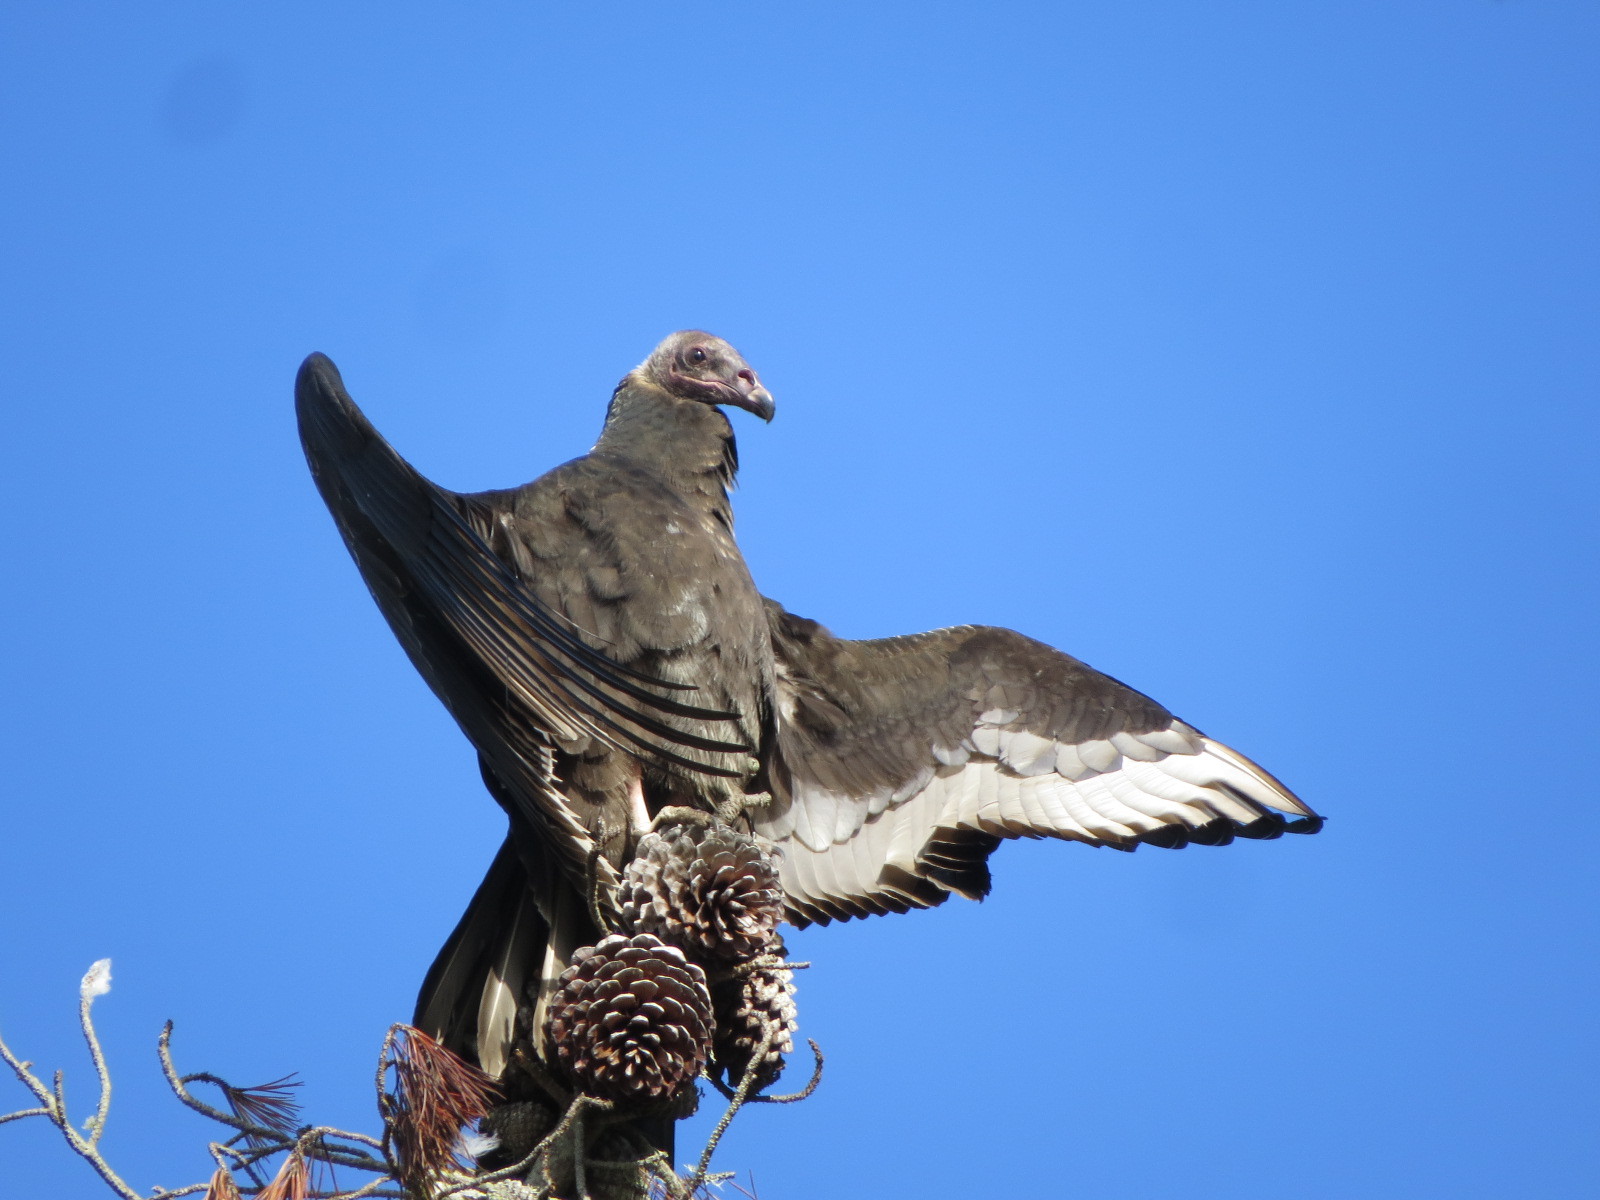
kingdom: Animalia
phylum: Chordata
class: Aves
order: Accipitriformes
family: Cathartidae
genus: Cathartes
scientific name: Cathartes aura
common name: Turkey vulture
